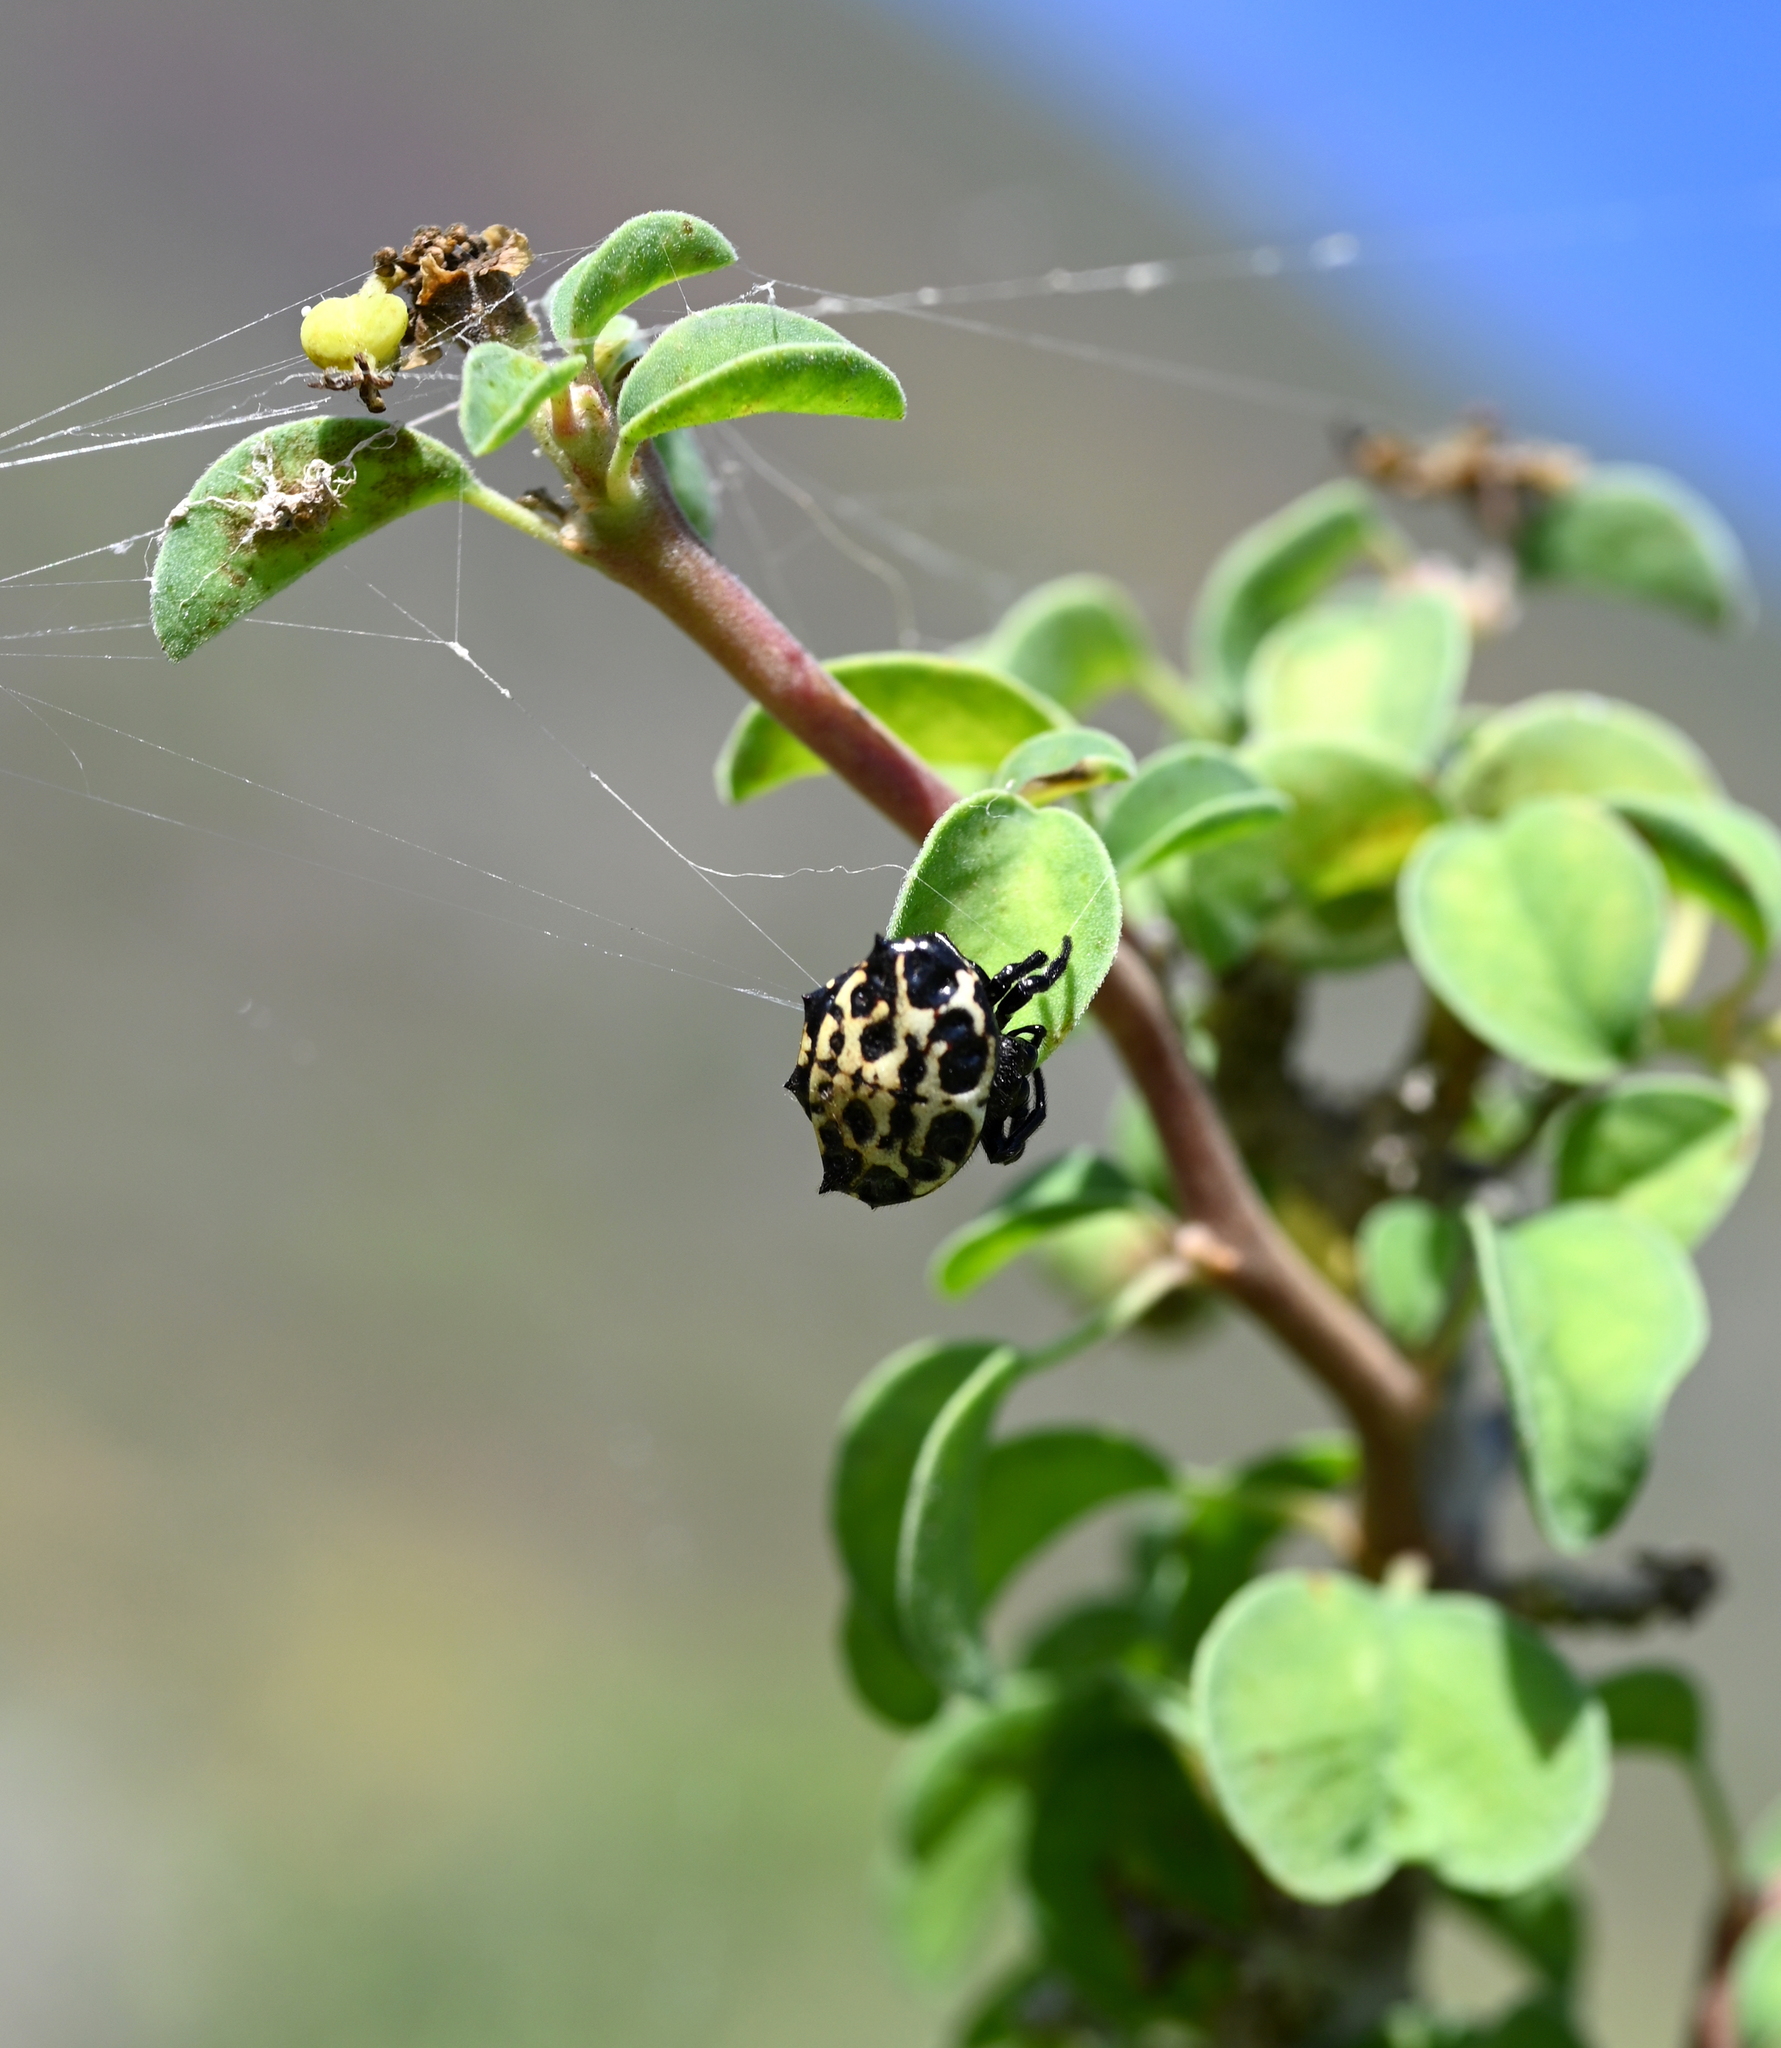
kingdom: Animalia
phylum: Arthropoda
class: Arachnida
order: Araneae
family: Araneidae
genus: Gasteracantha
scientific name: Gasteracantha cancriformis
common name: Orb weavers
